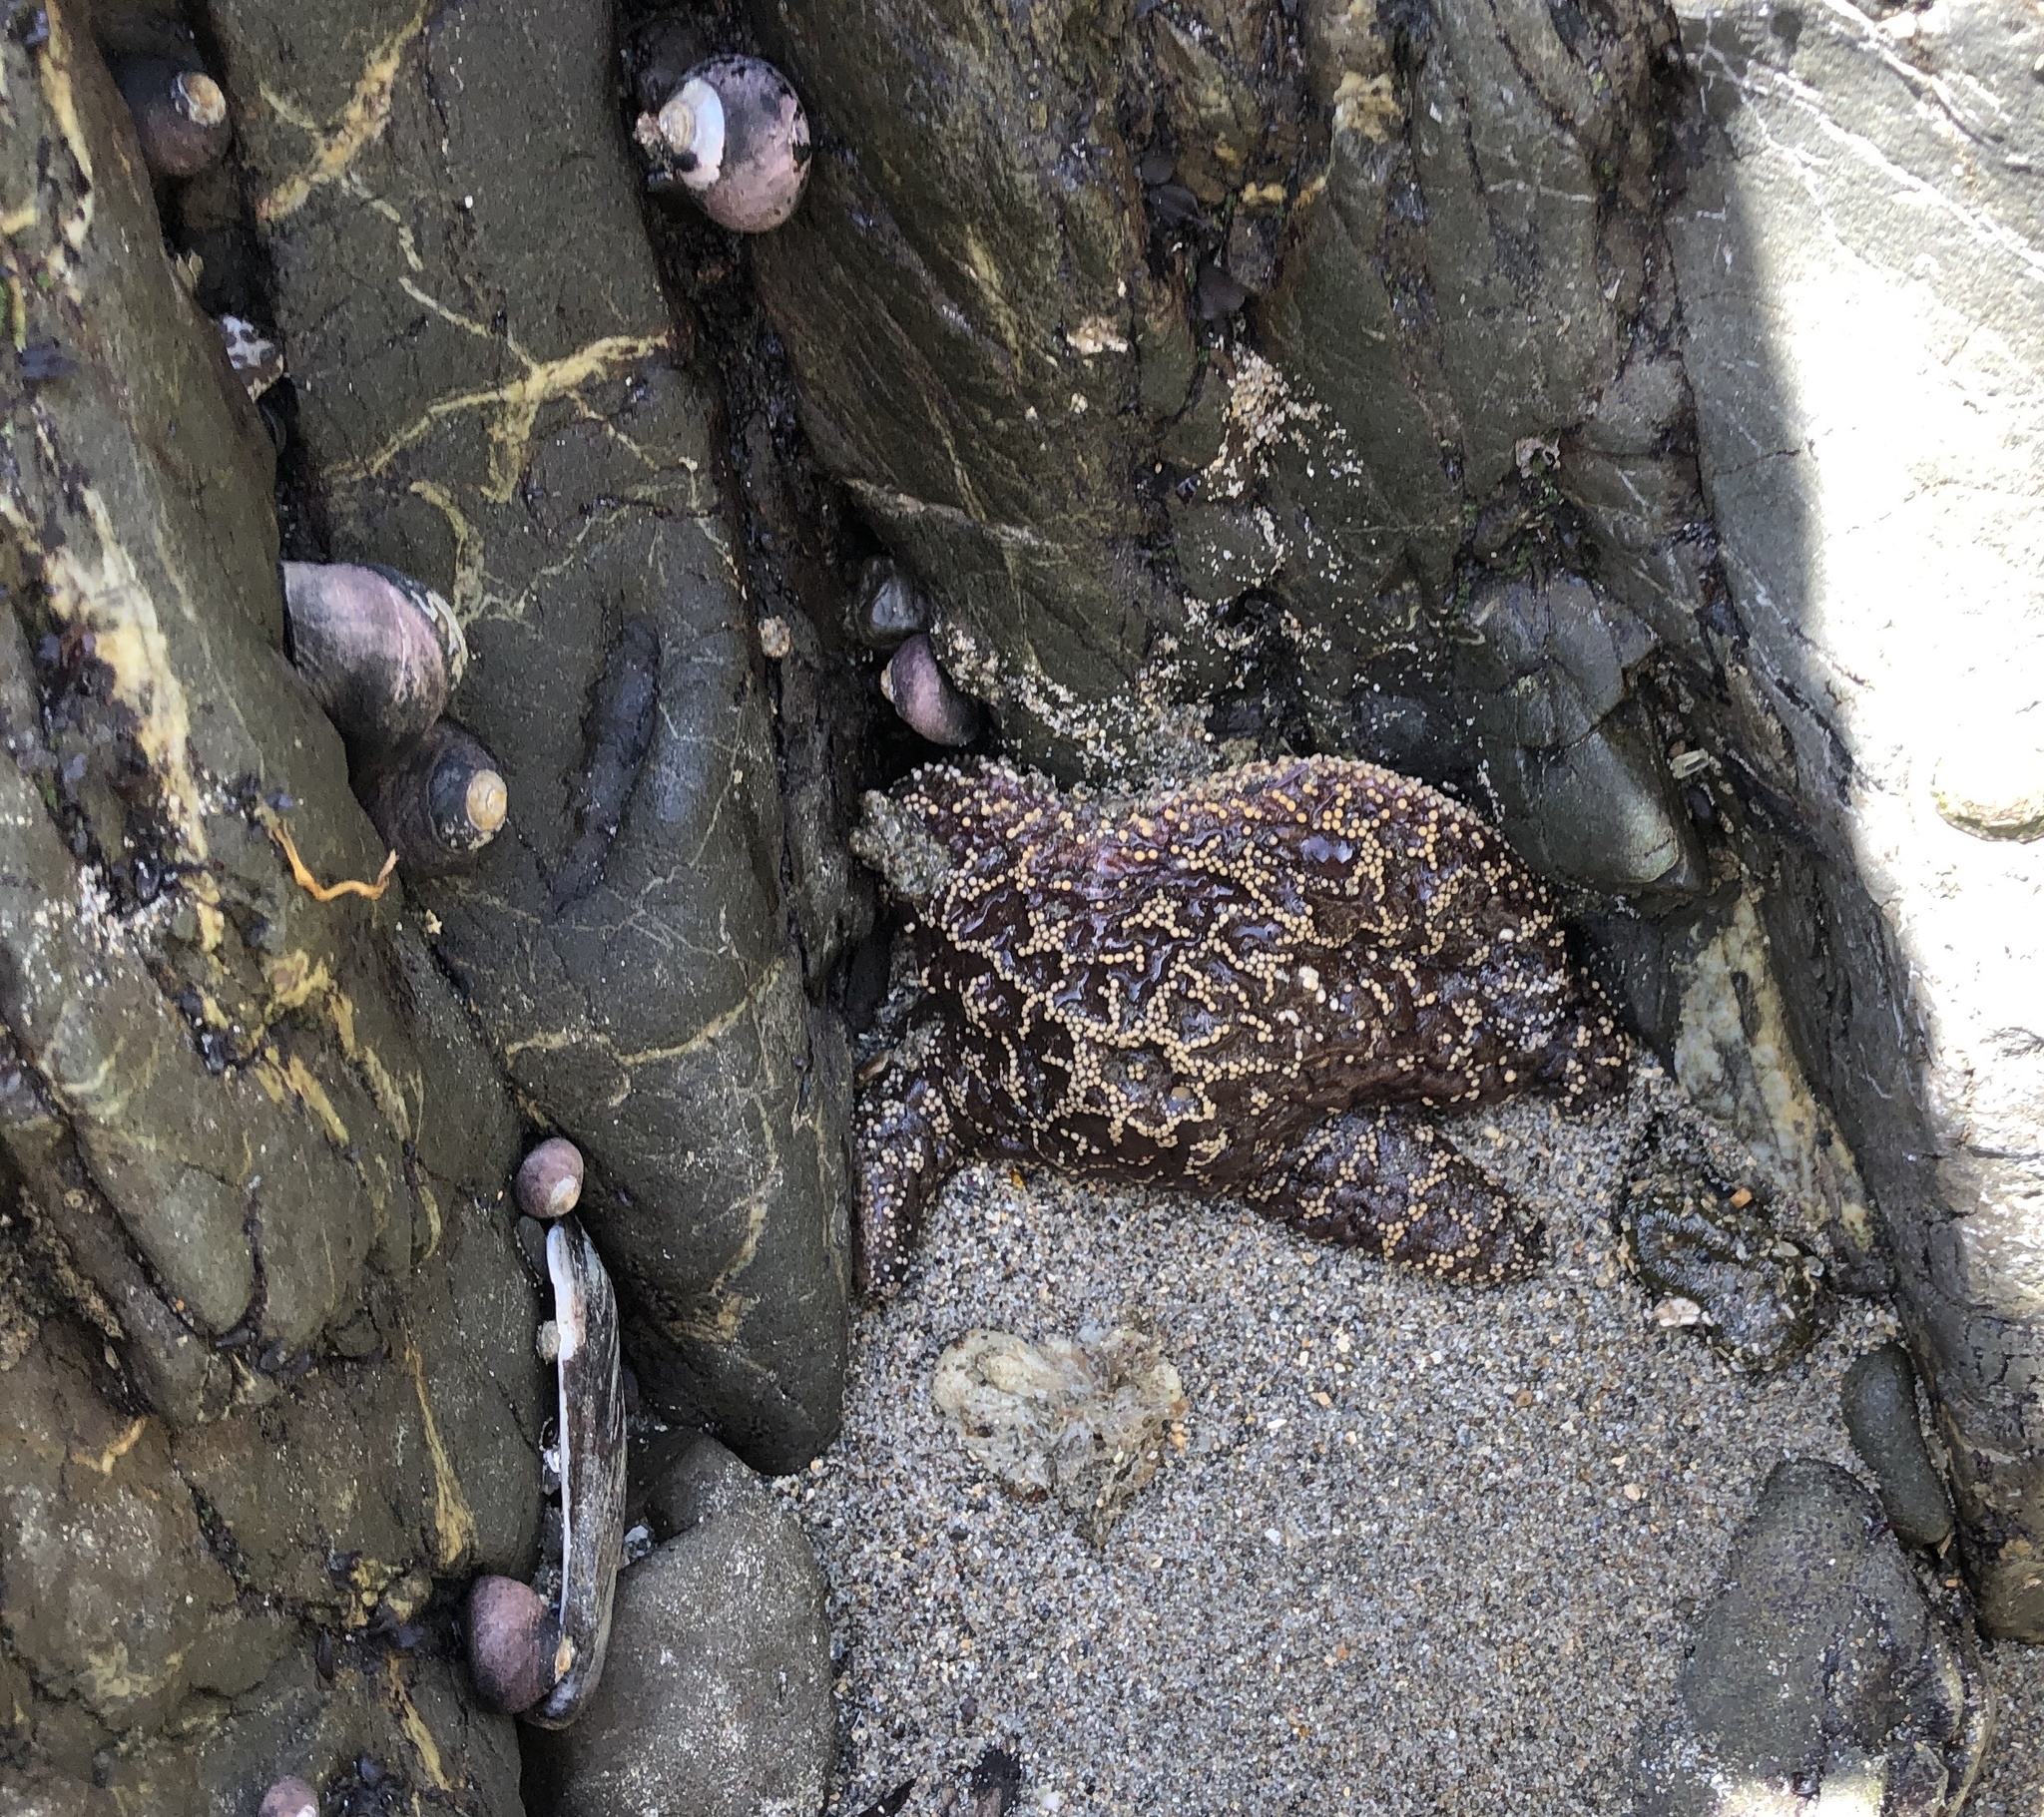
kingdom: Animalia
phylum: Echinodermata
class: Asteroidea
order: Forcipulatida
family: Asteriidae
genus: Pisaster
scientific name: Pisaster ochraceus
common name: Ochre stars
